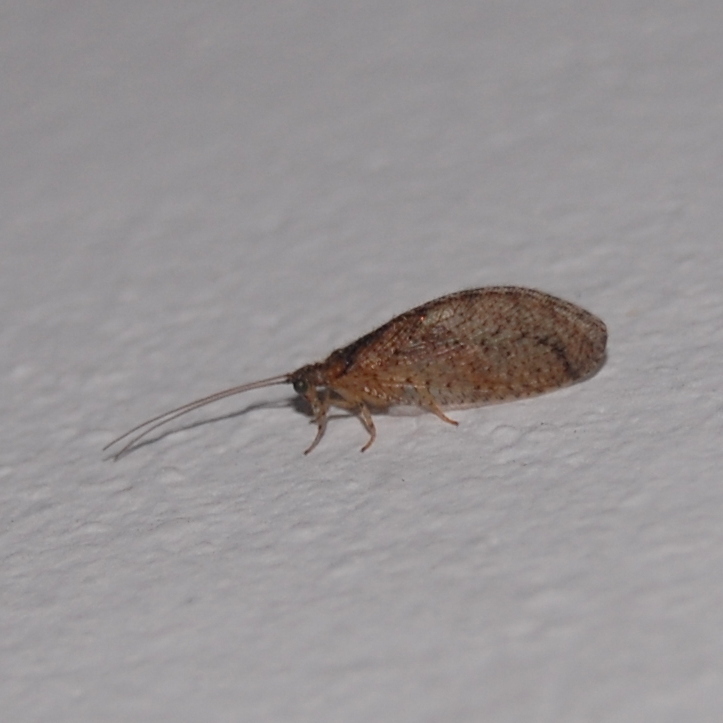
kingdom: Animalia
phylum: Arthropoda
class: Insecta
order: Neuroptera
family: Hemerobiidae
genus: Nusalala
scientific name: Nusalala tessellata
